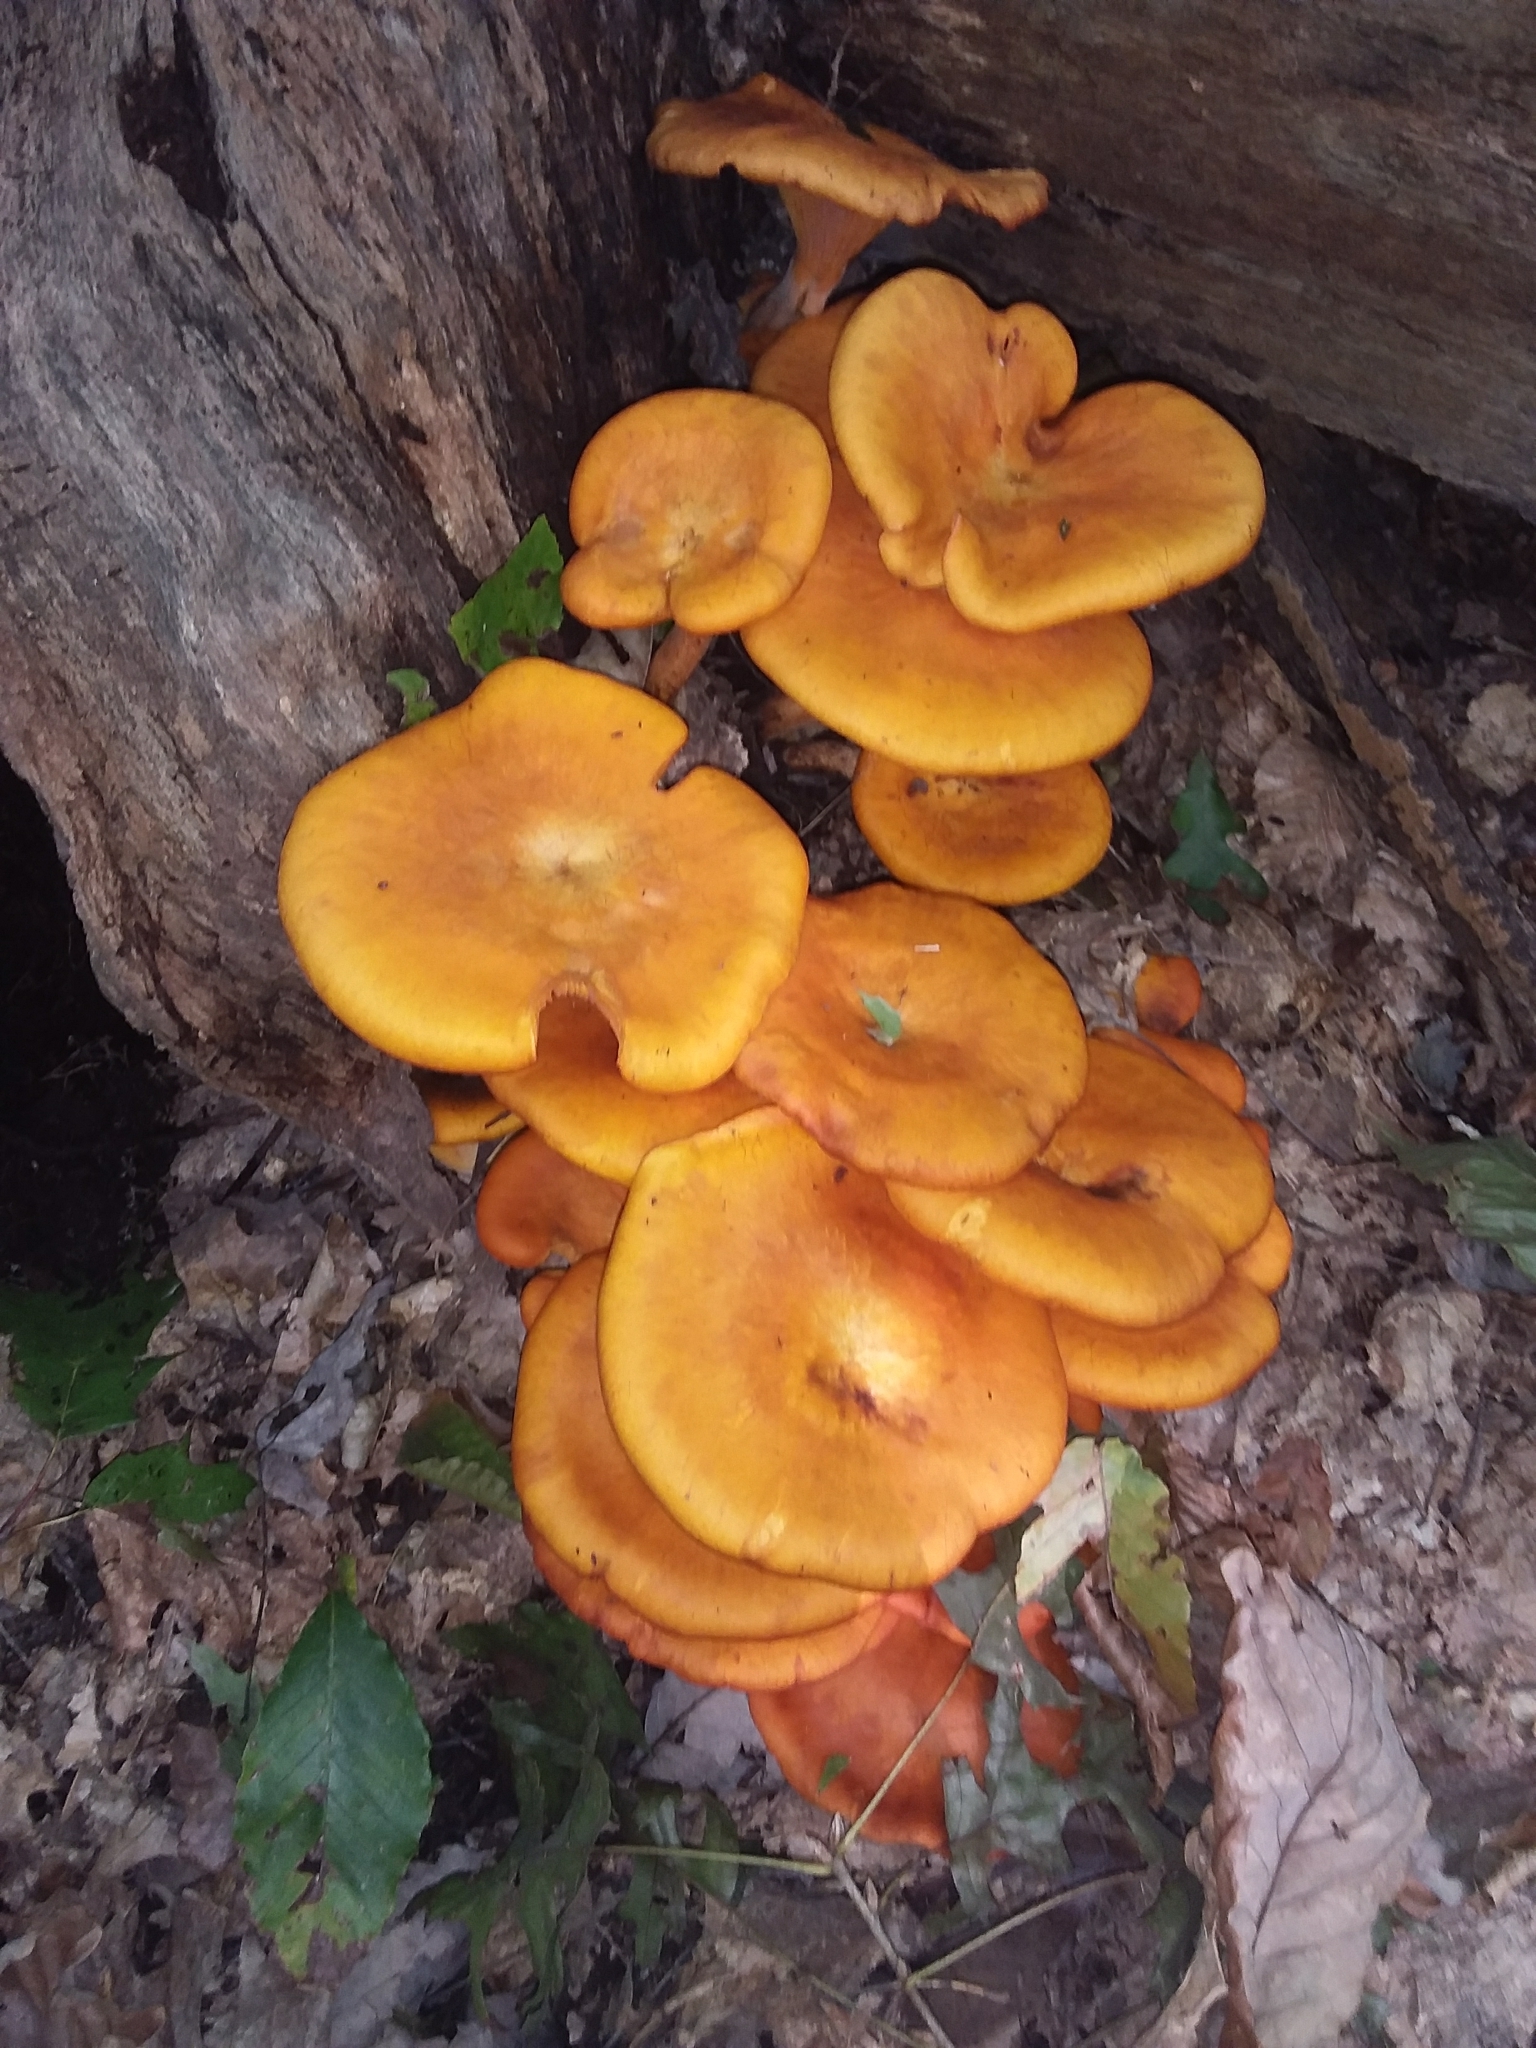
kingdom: Fungi
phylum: Basidiomycota
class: Agaricomycetes
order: Agaricales
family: Omphalotaceae
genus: Omphalotus
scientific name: Omphalotus illudens
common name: Jack o lantern
